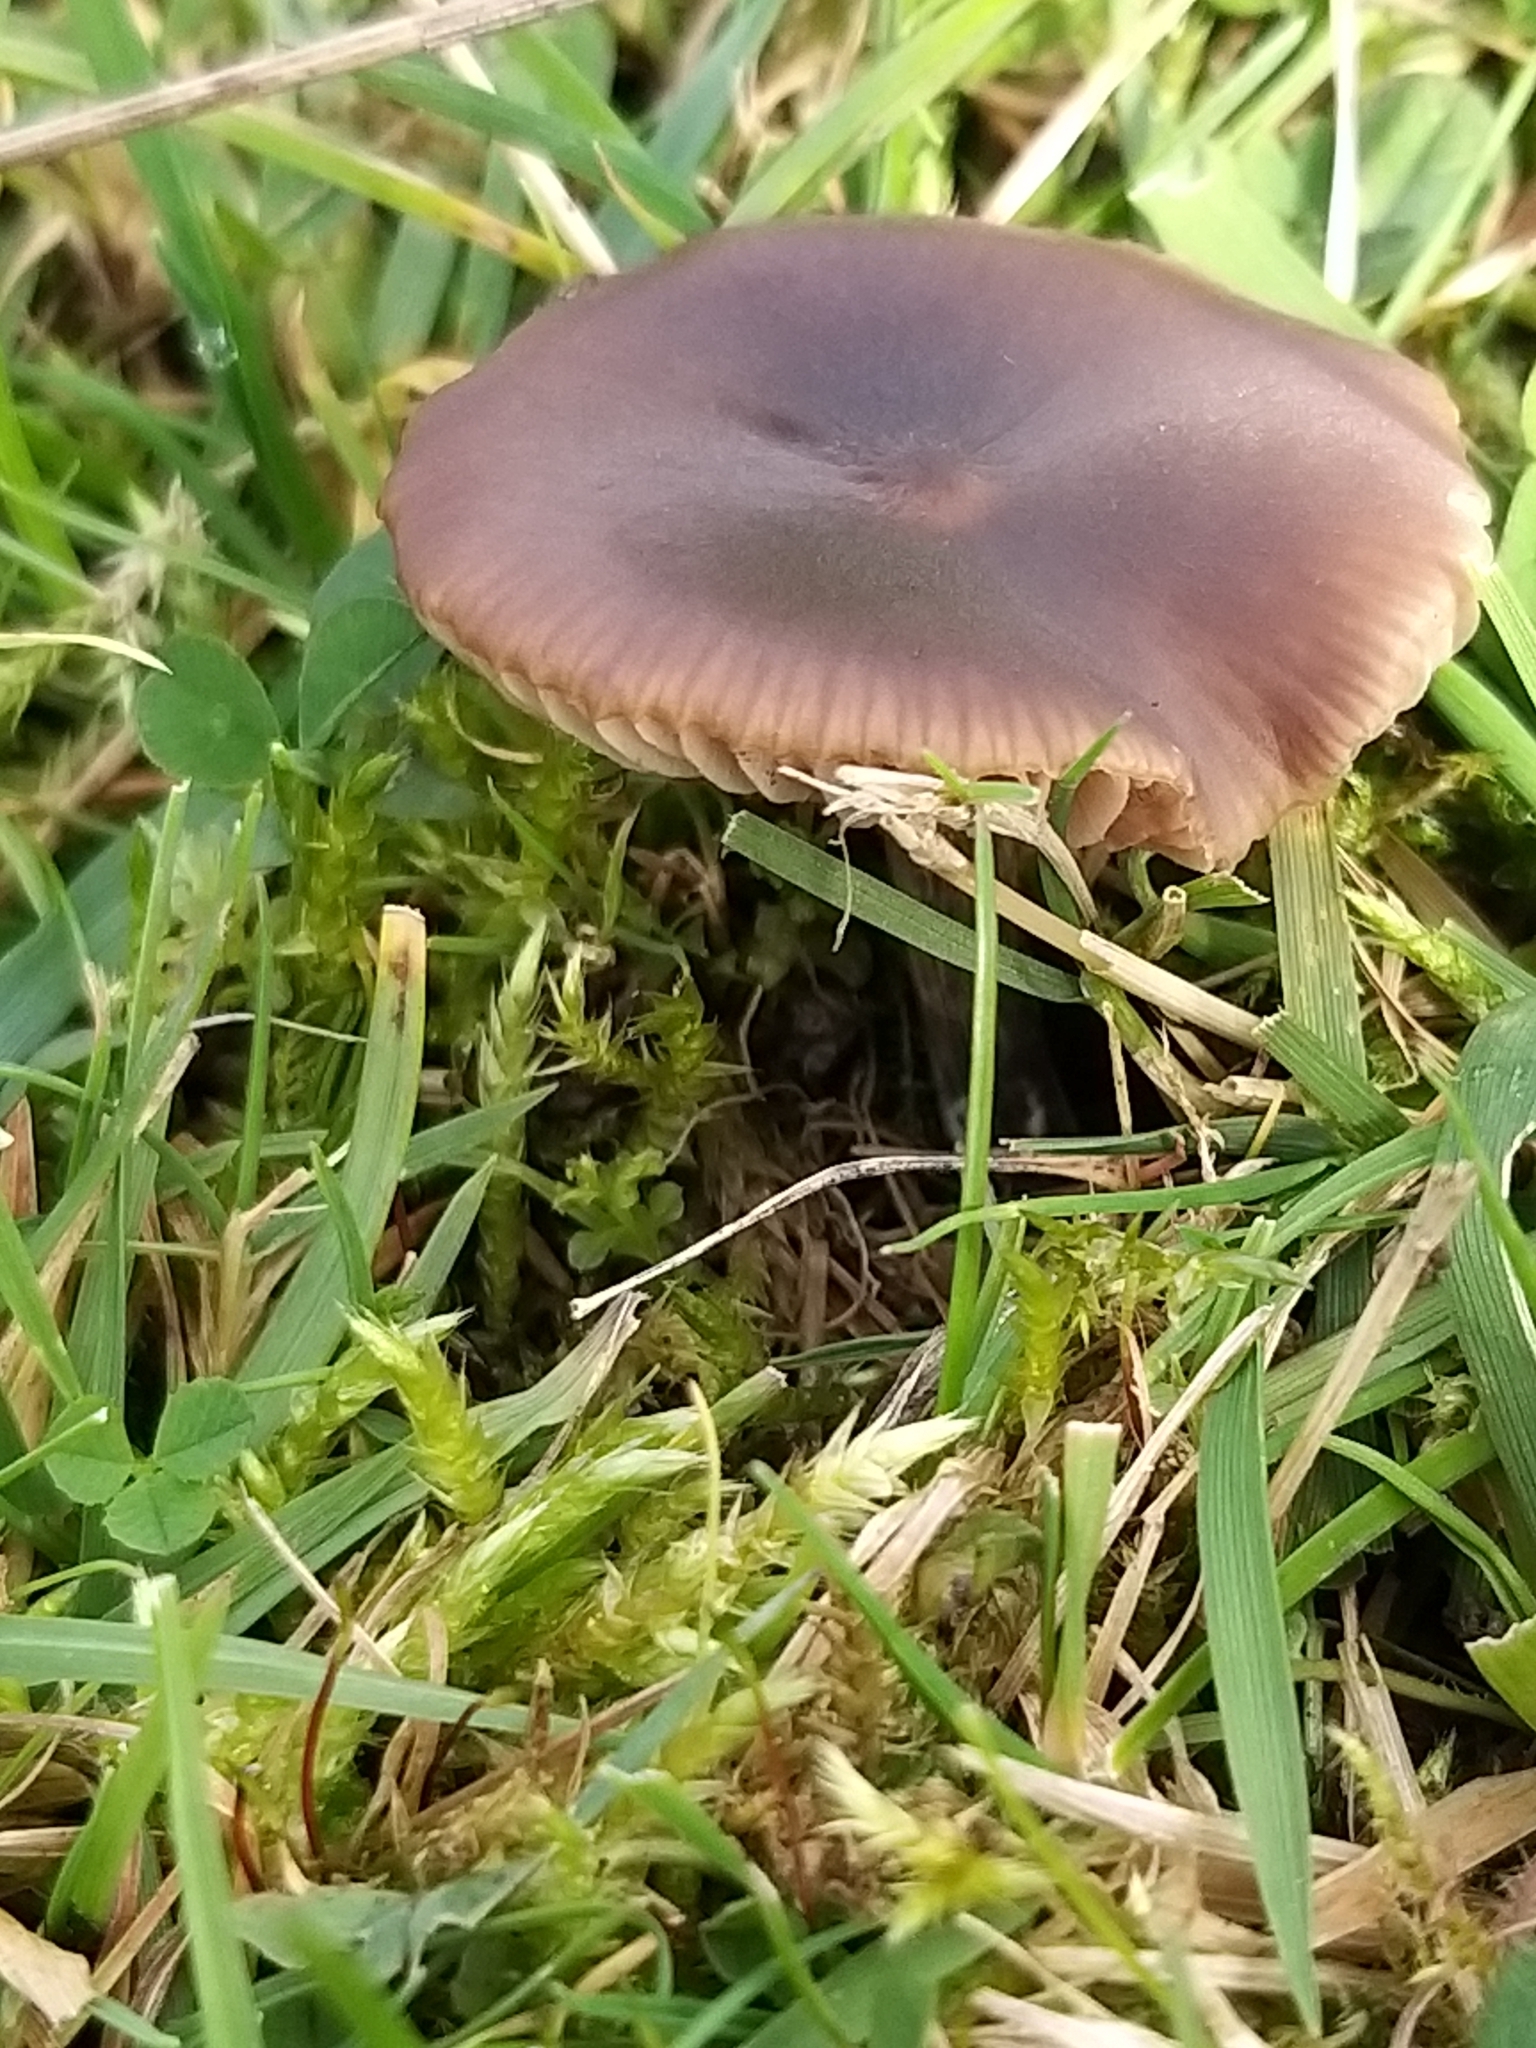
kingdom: Fungi
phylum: Basidiomycota
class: Agaricomycetes
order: Agaricales
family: Entolomataceae
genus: Entoloma
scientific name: Entoloma sericeum
